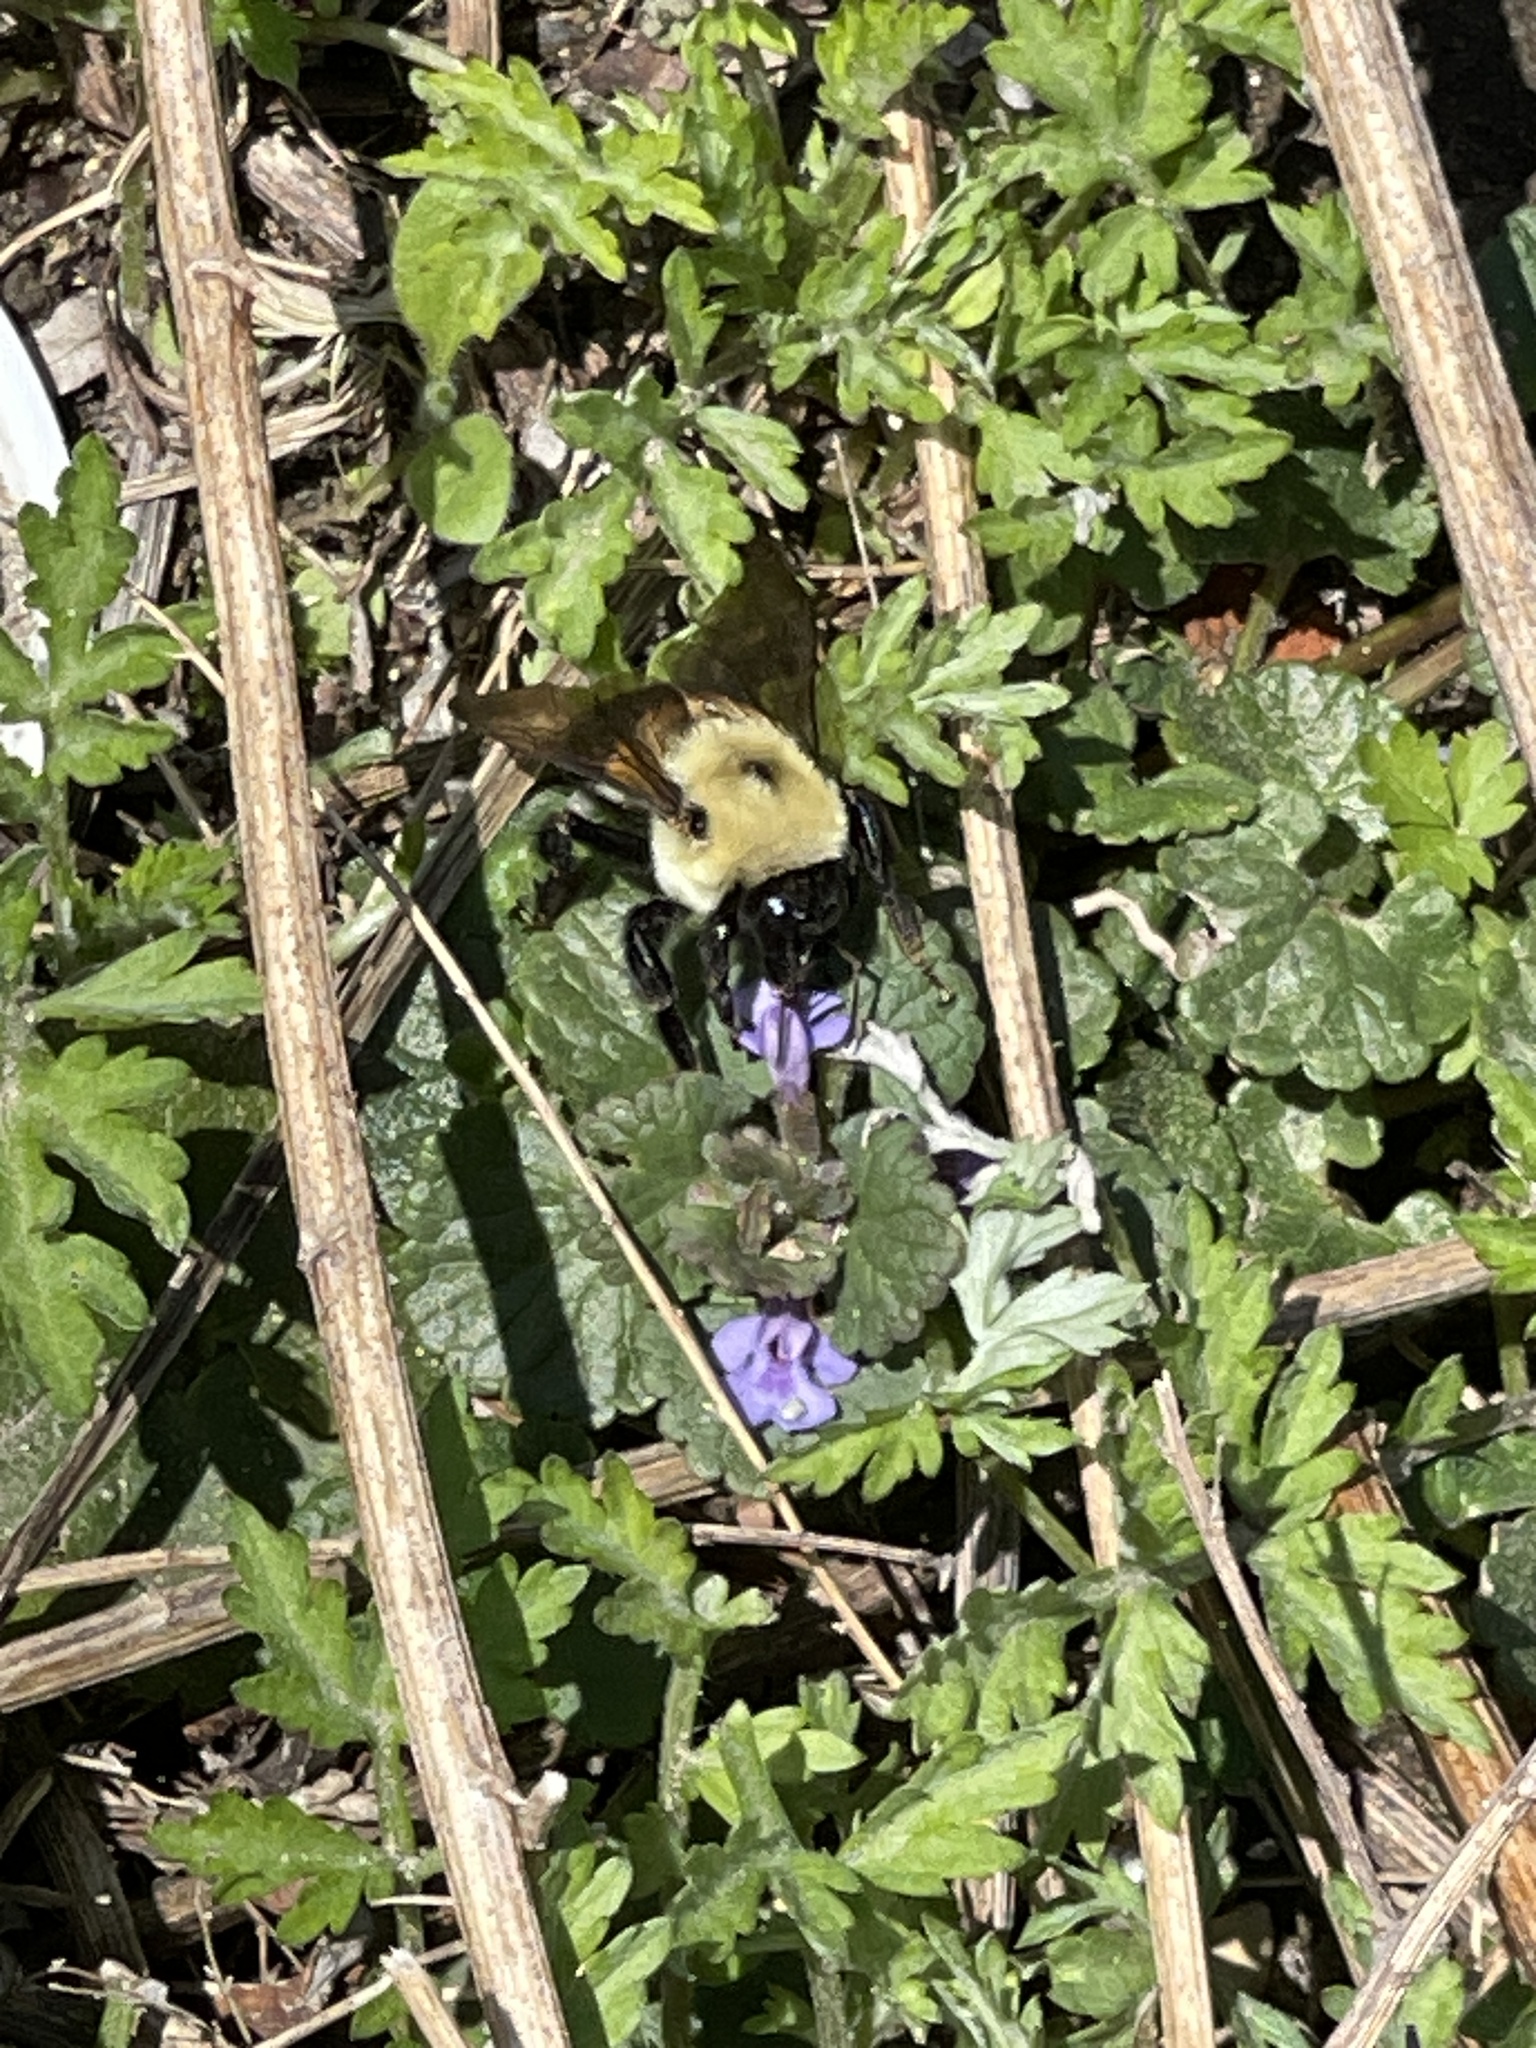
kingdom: Animalia
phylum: Arthropoda
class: Insecta
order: Hymenoptera
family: Apidae
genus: Bombus
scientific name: Bombus griseocollis
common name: Brown-belted bumble bee
